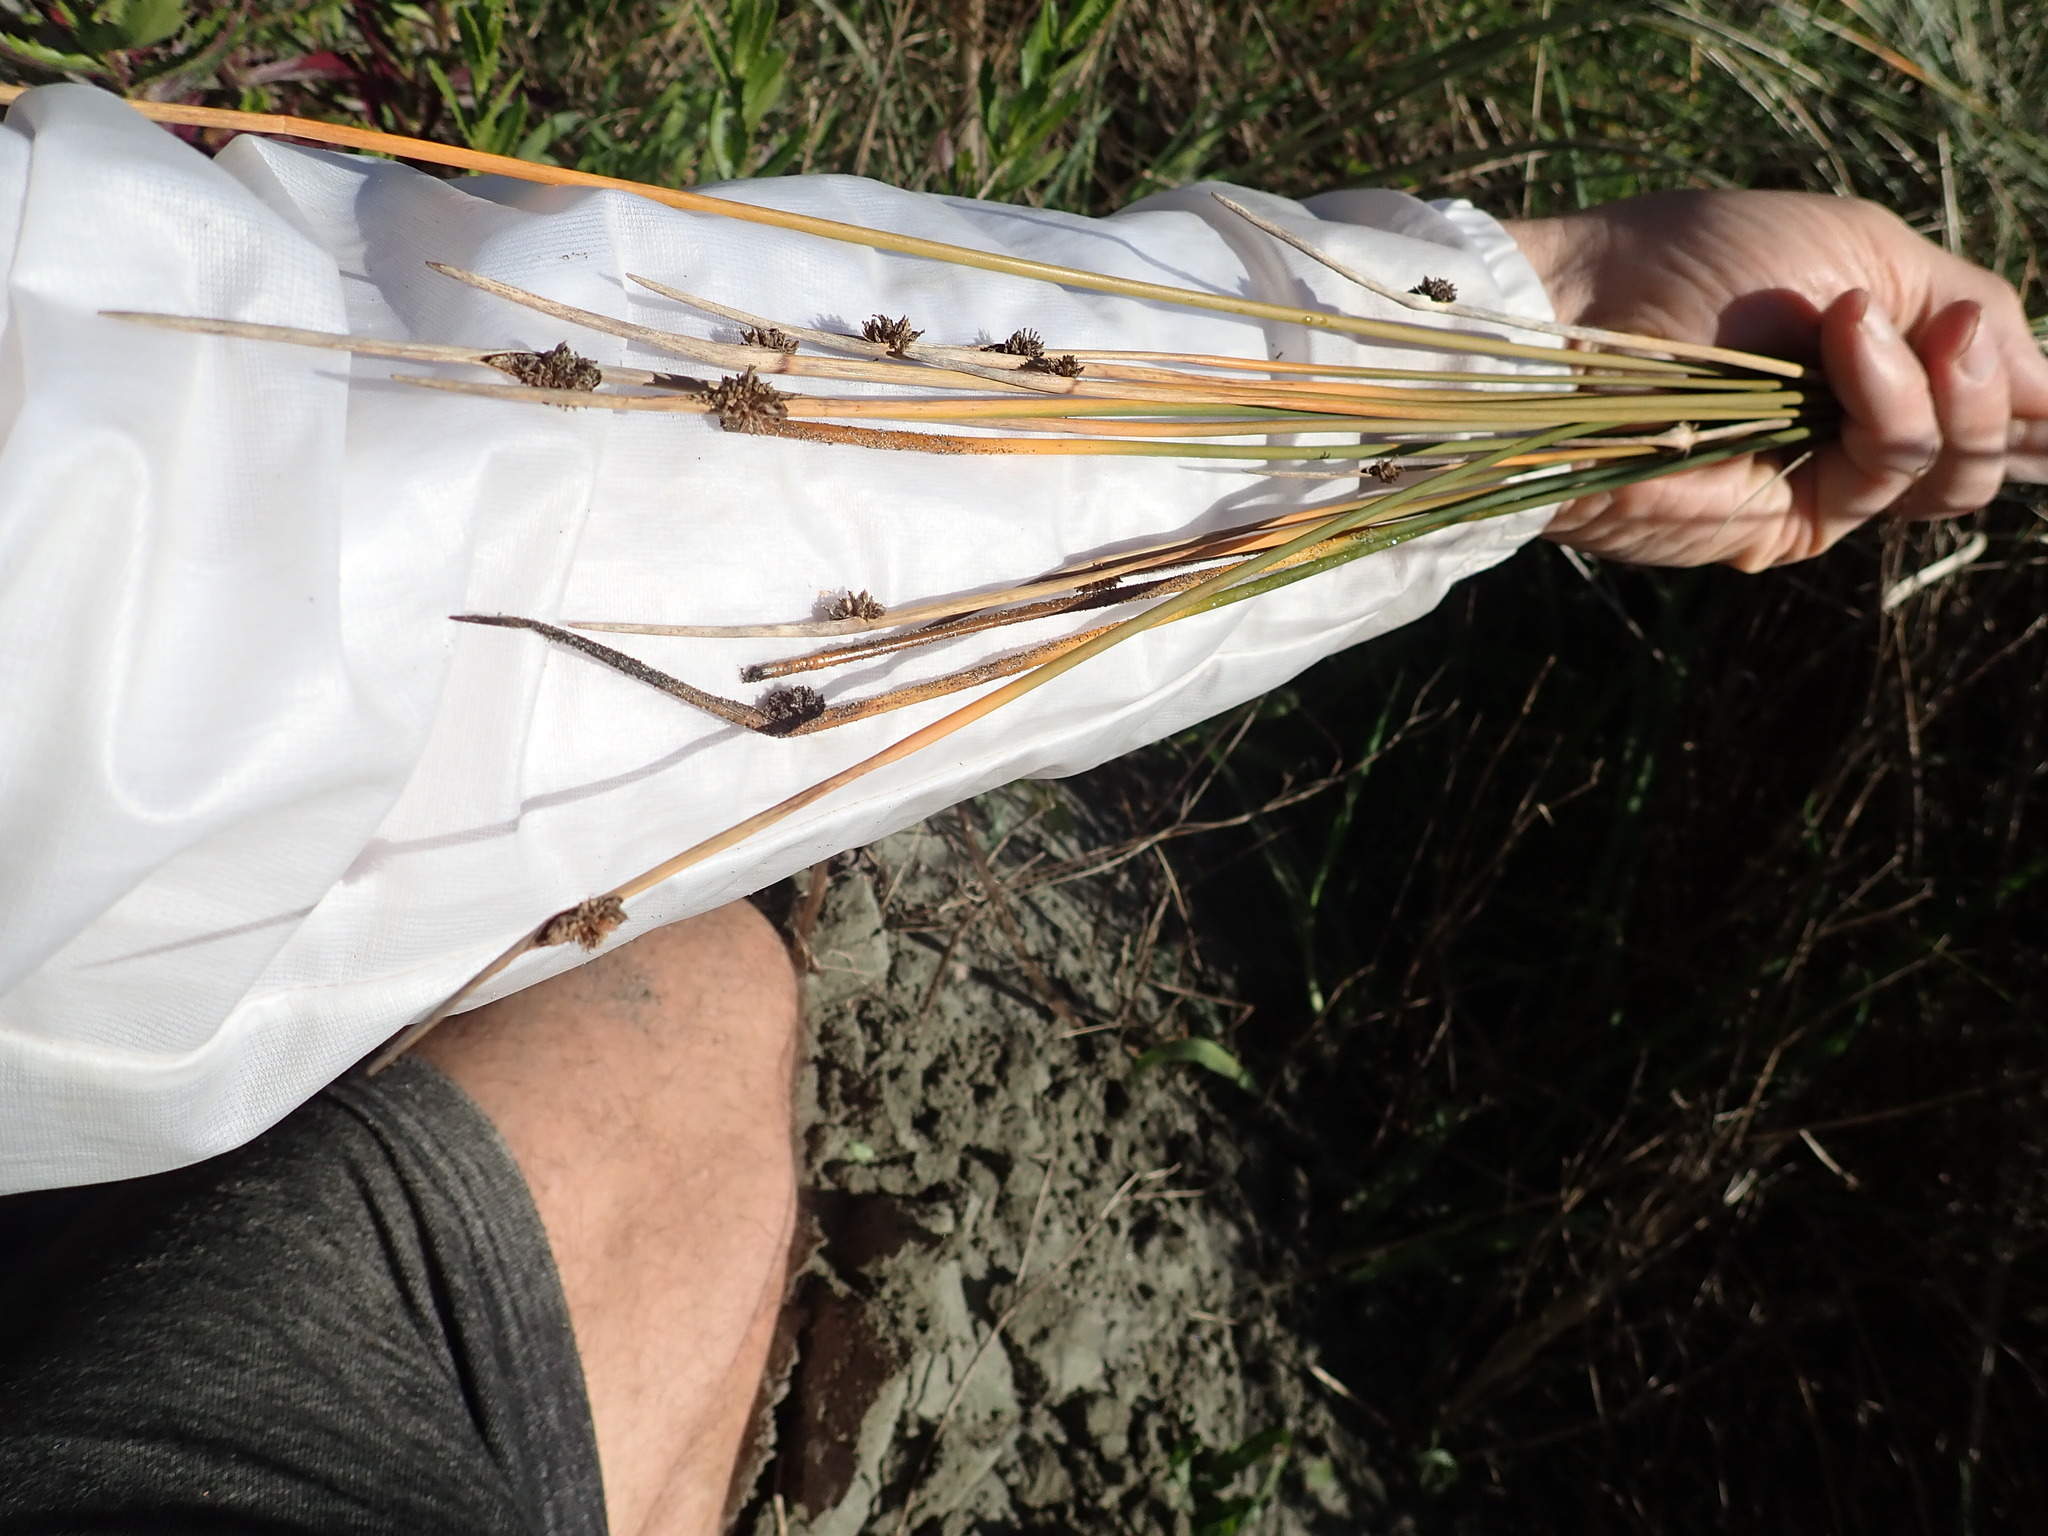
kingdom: Plantae
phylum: Tracheophyta
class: Liliopsida
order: Poales
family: Cyperaceae
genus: Ficinia
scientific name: Ficinia nodosa
